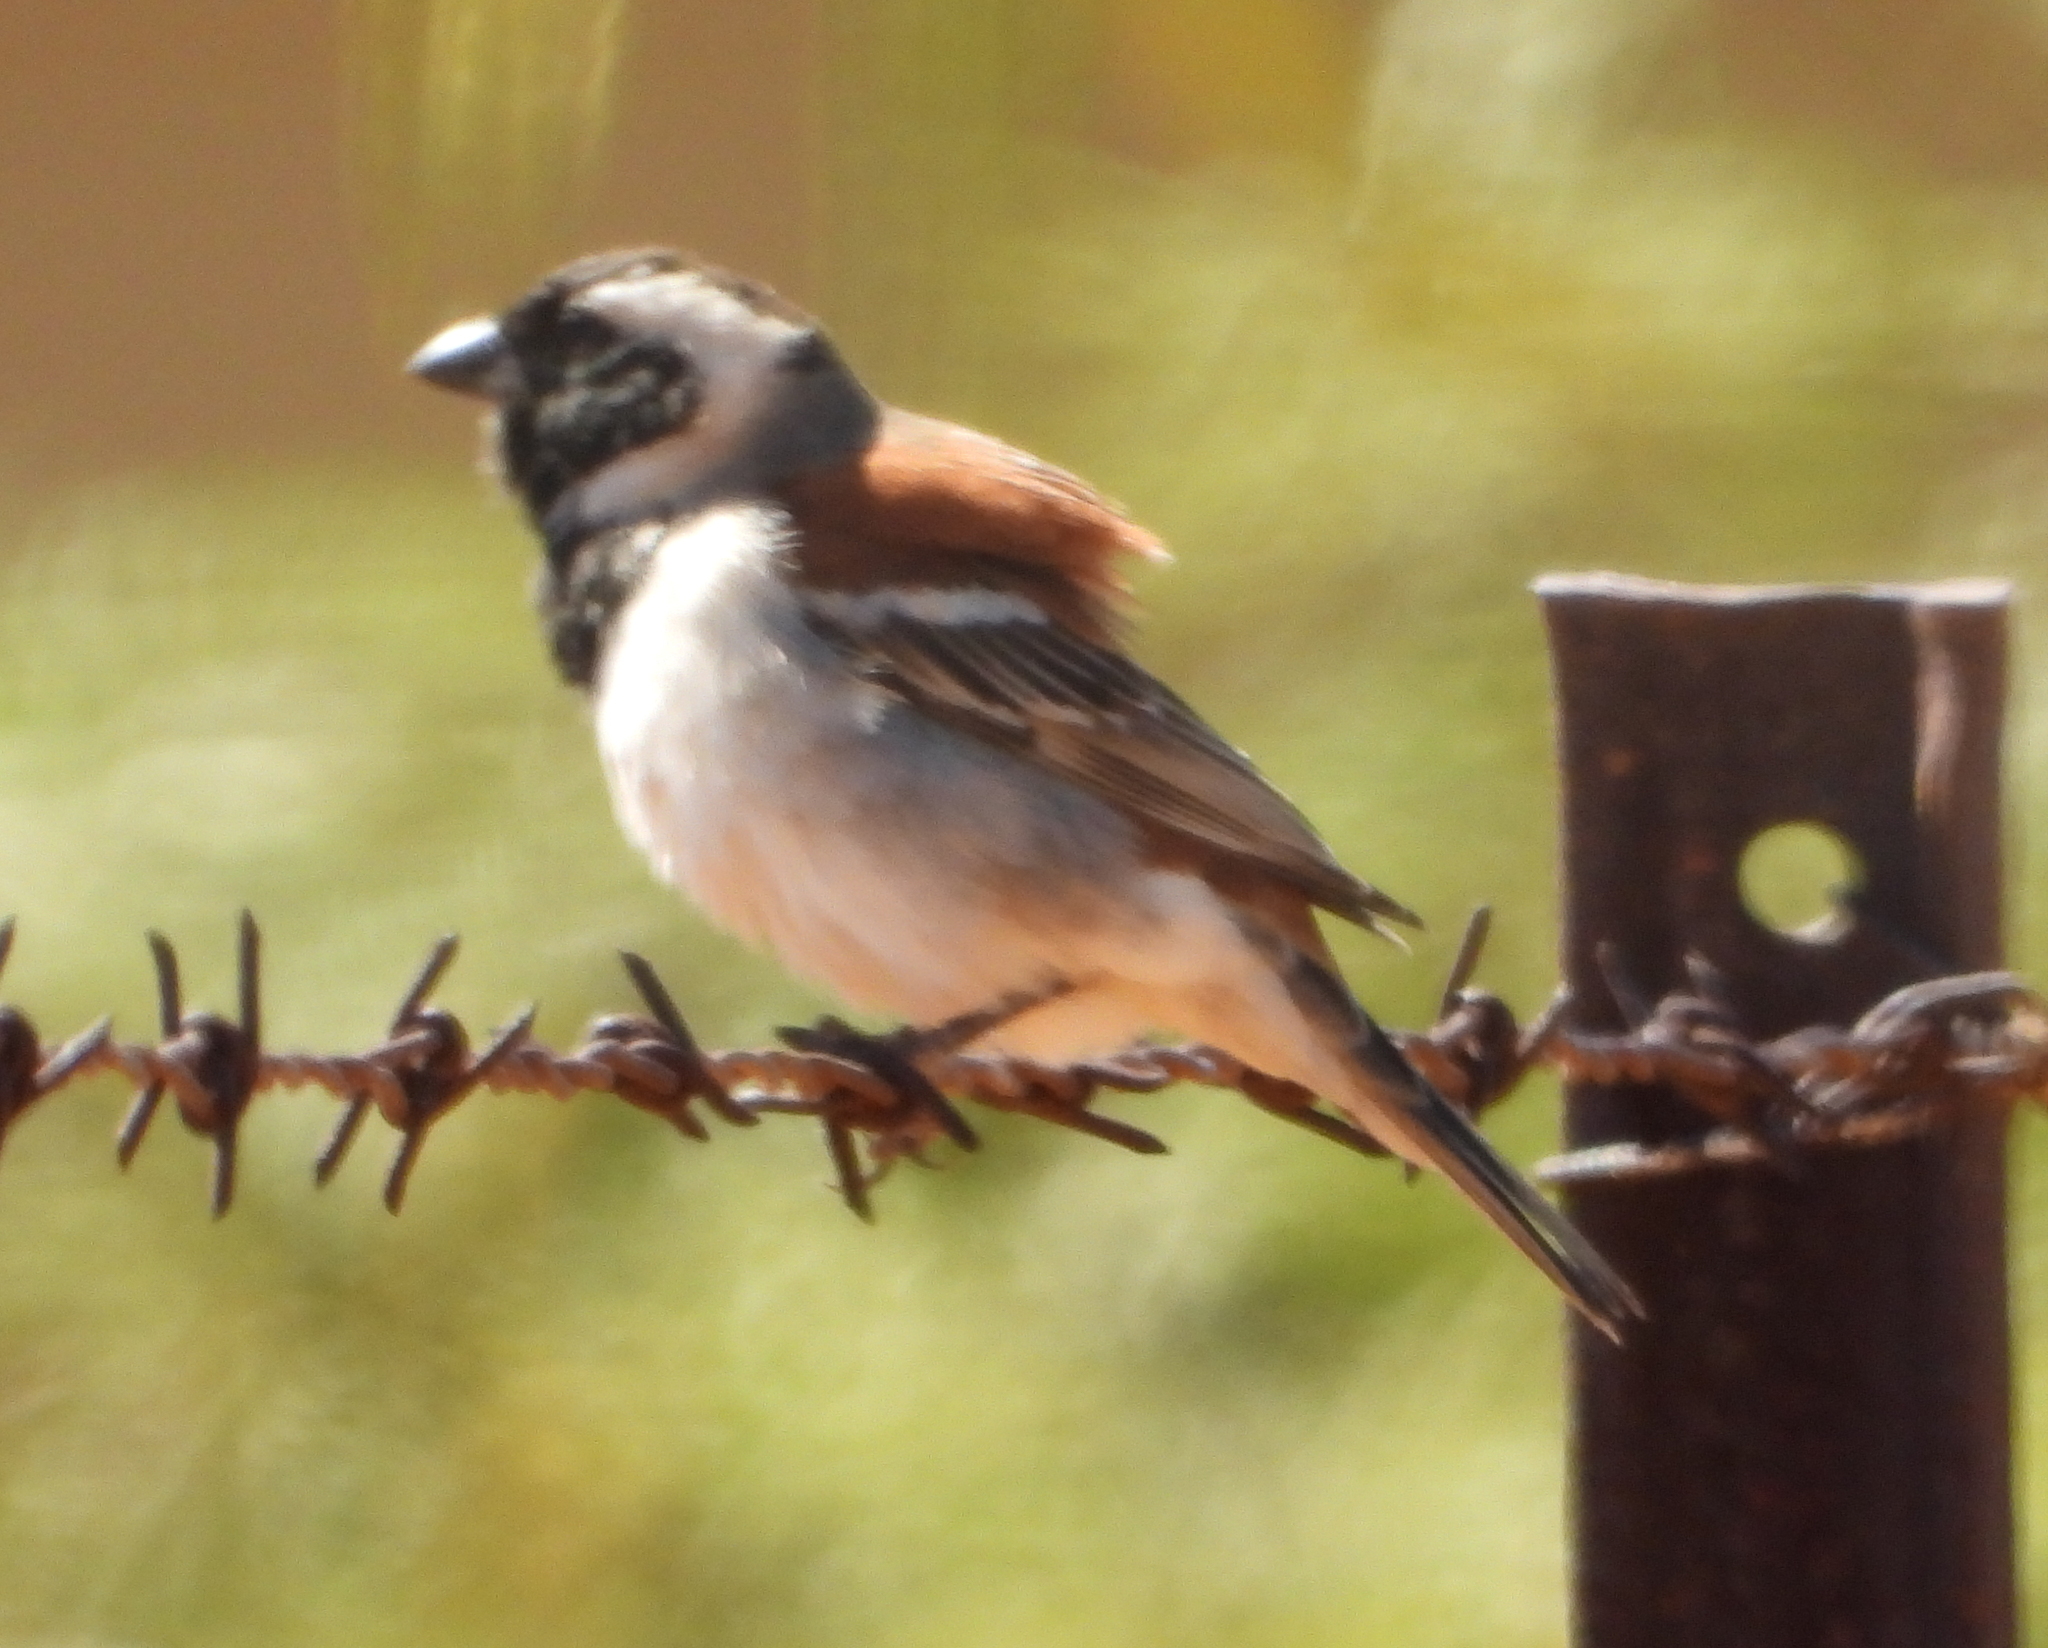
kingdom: Animalia
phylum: Chordata
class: Aves
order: Passeriformes
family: Passeridae
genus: Passer
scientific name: Passer melanurus
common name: Cape sparrow
